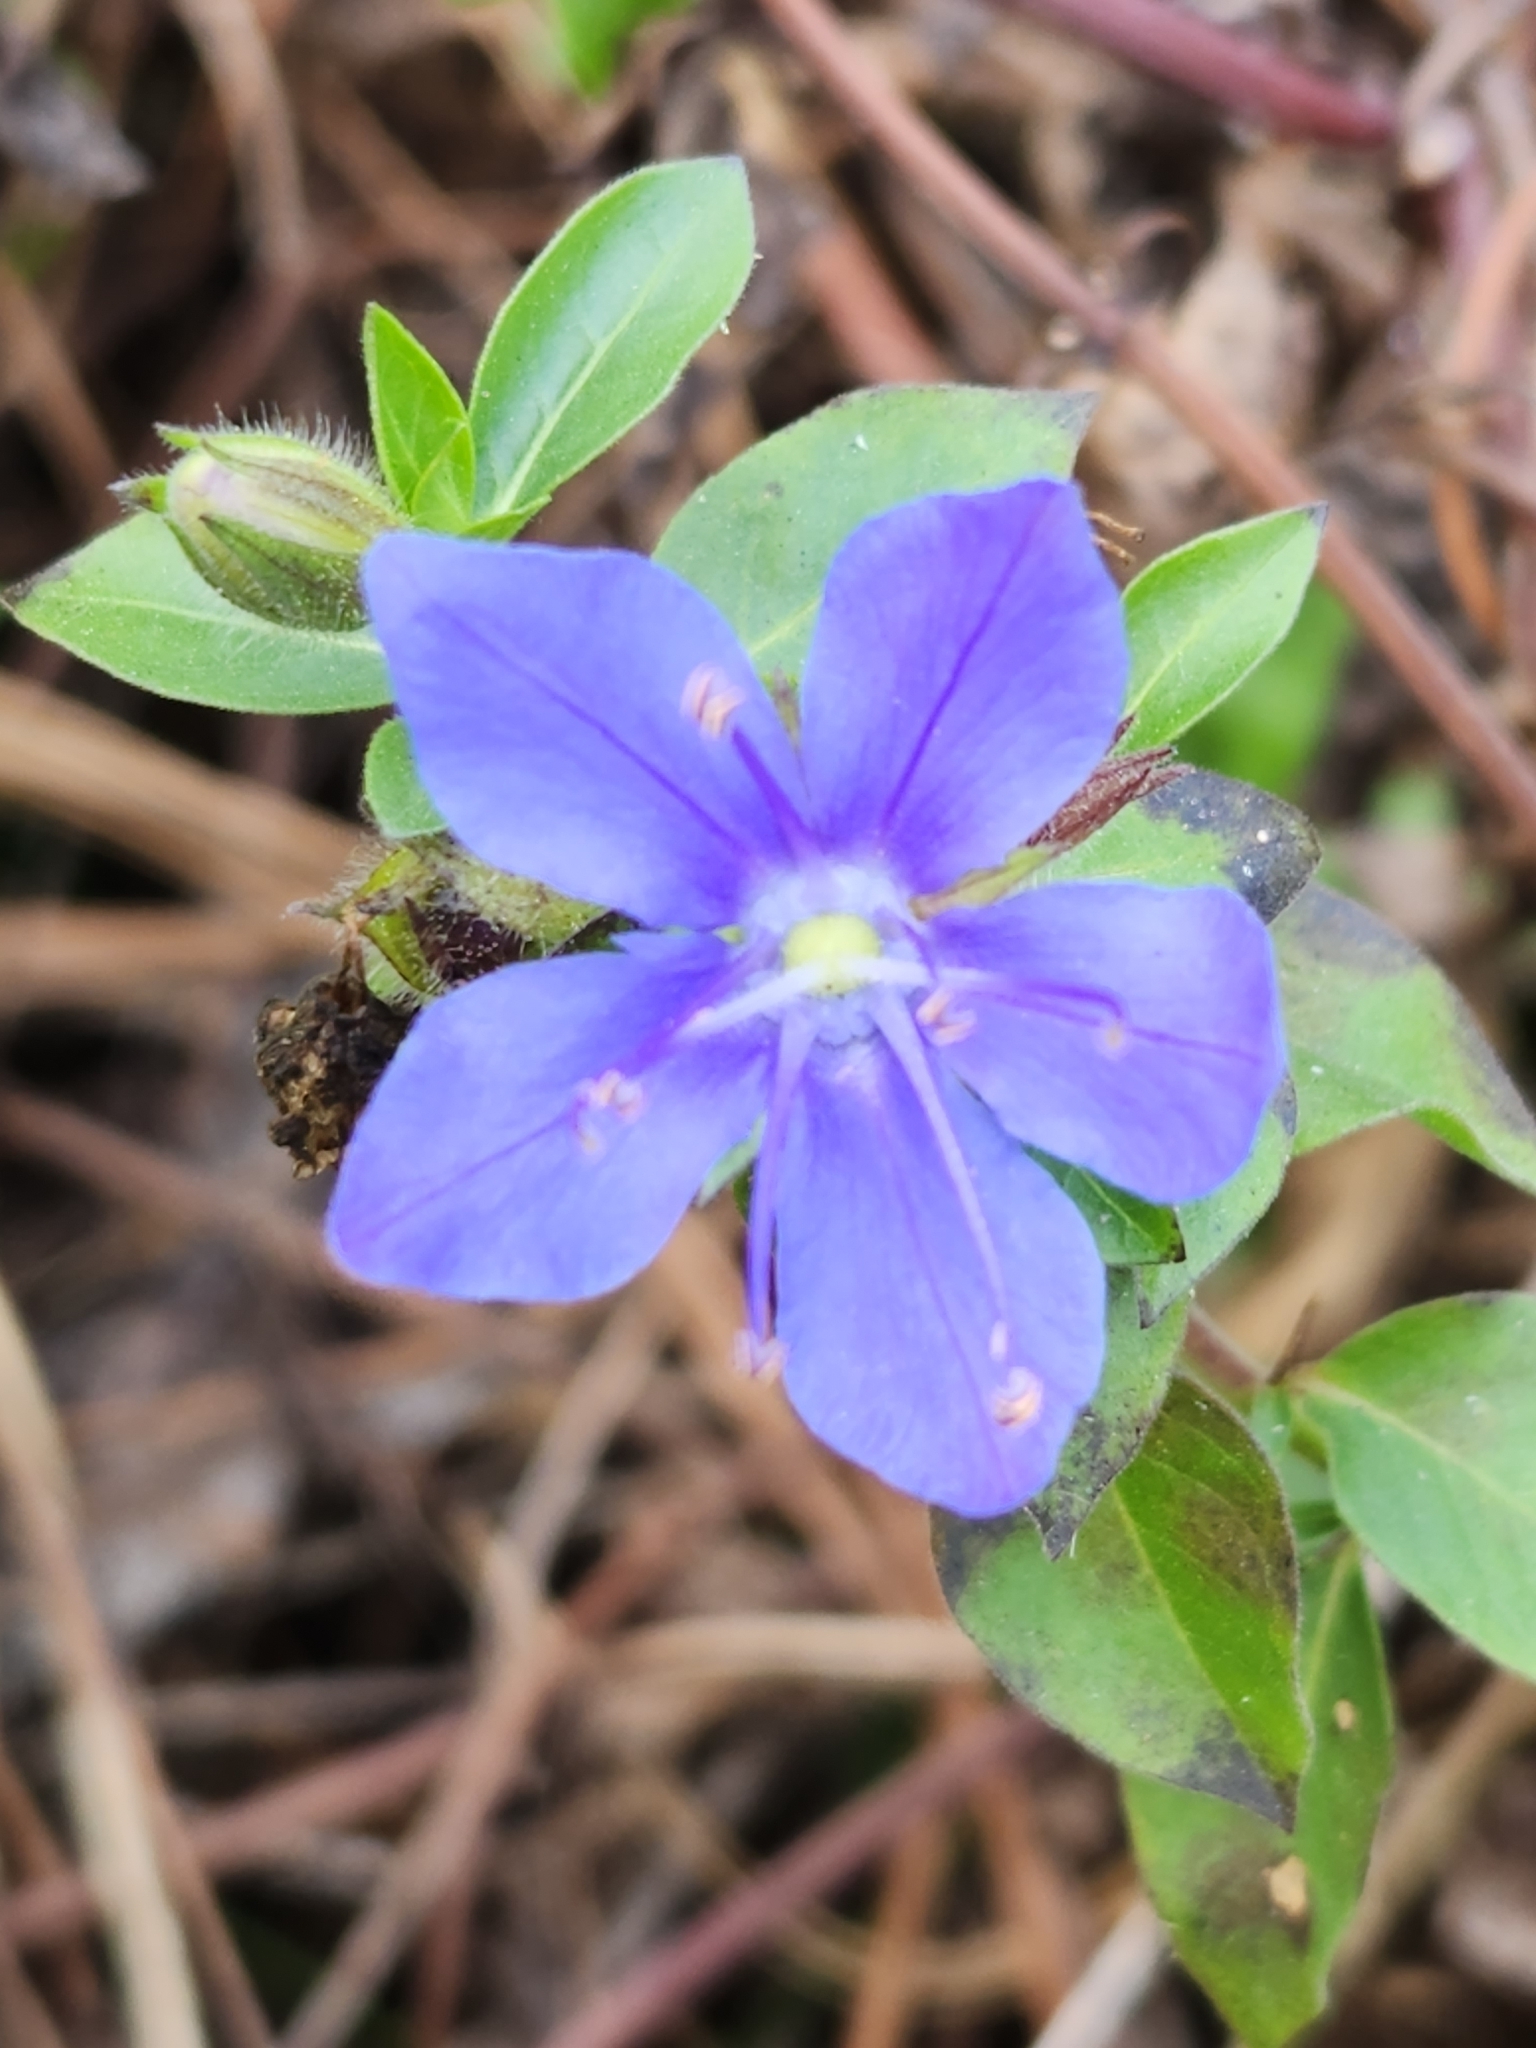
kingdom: Plantae
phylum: Tracheophyta
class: Magnoliopsida
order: Solanales
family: Hydroleaceae
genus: Hydrolea
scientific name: Hydrolea ovata
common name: Ovate false fiddleleaf
